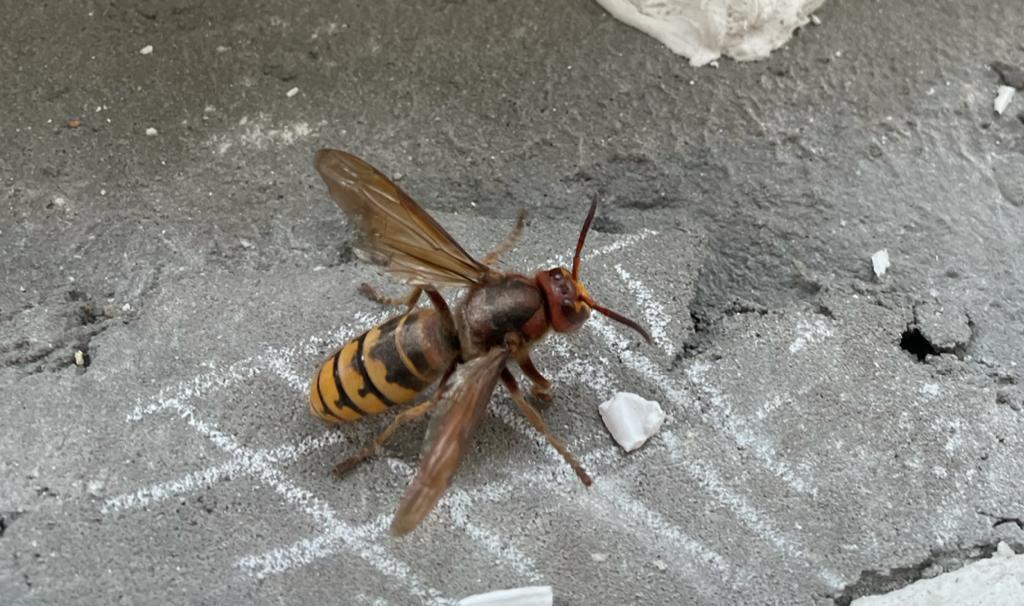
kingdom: Animalia
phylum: Arthropoda
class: Insecta
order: Hymenoptera
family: Vespidae
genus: Vespa
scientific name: Vespa crabro
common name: Hornet
